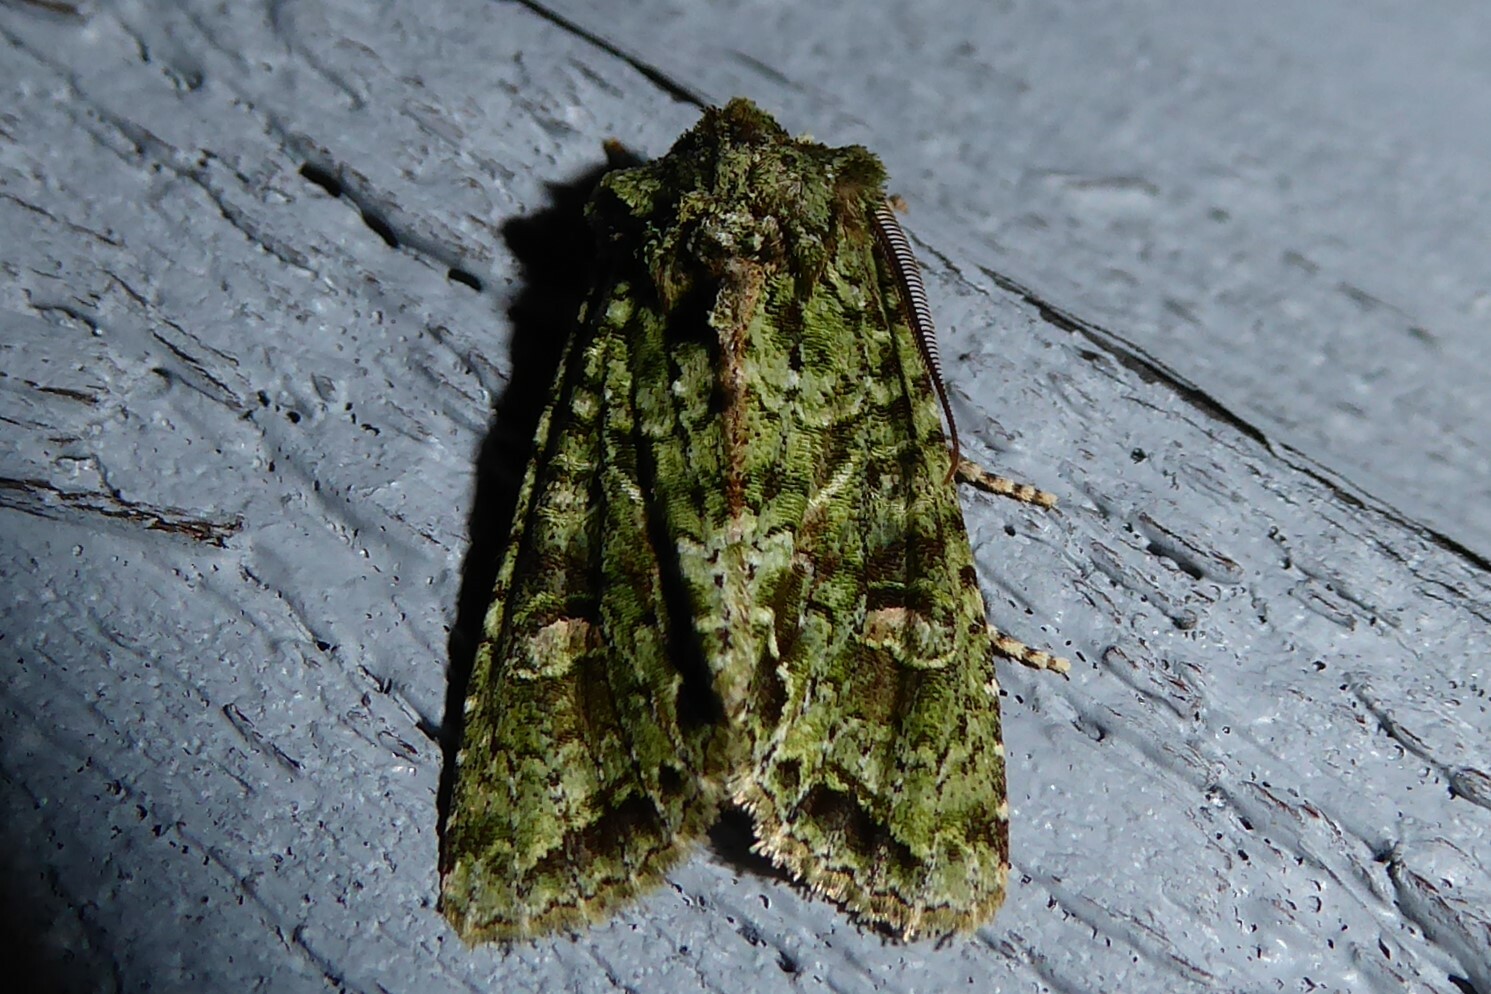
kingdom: Animalia
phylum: Arthropoda
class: Insecta
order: Lepidoptera
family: Noctuidae
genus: Ichneutica
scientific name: Ichneutica
